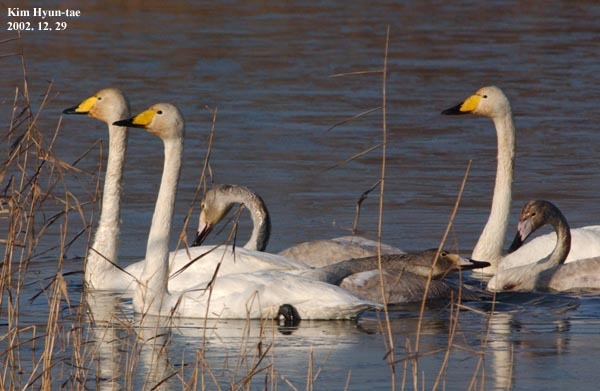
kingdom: Animalia
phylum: Chordata
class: Aves
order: Anseriformes
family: Anatidae
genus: Cygnus
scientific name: Cygnus cygnus
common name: Whooper swan
